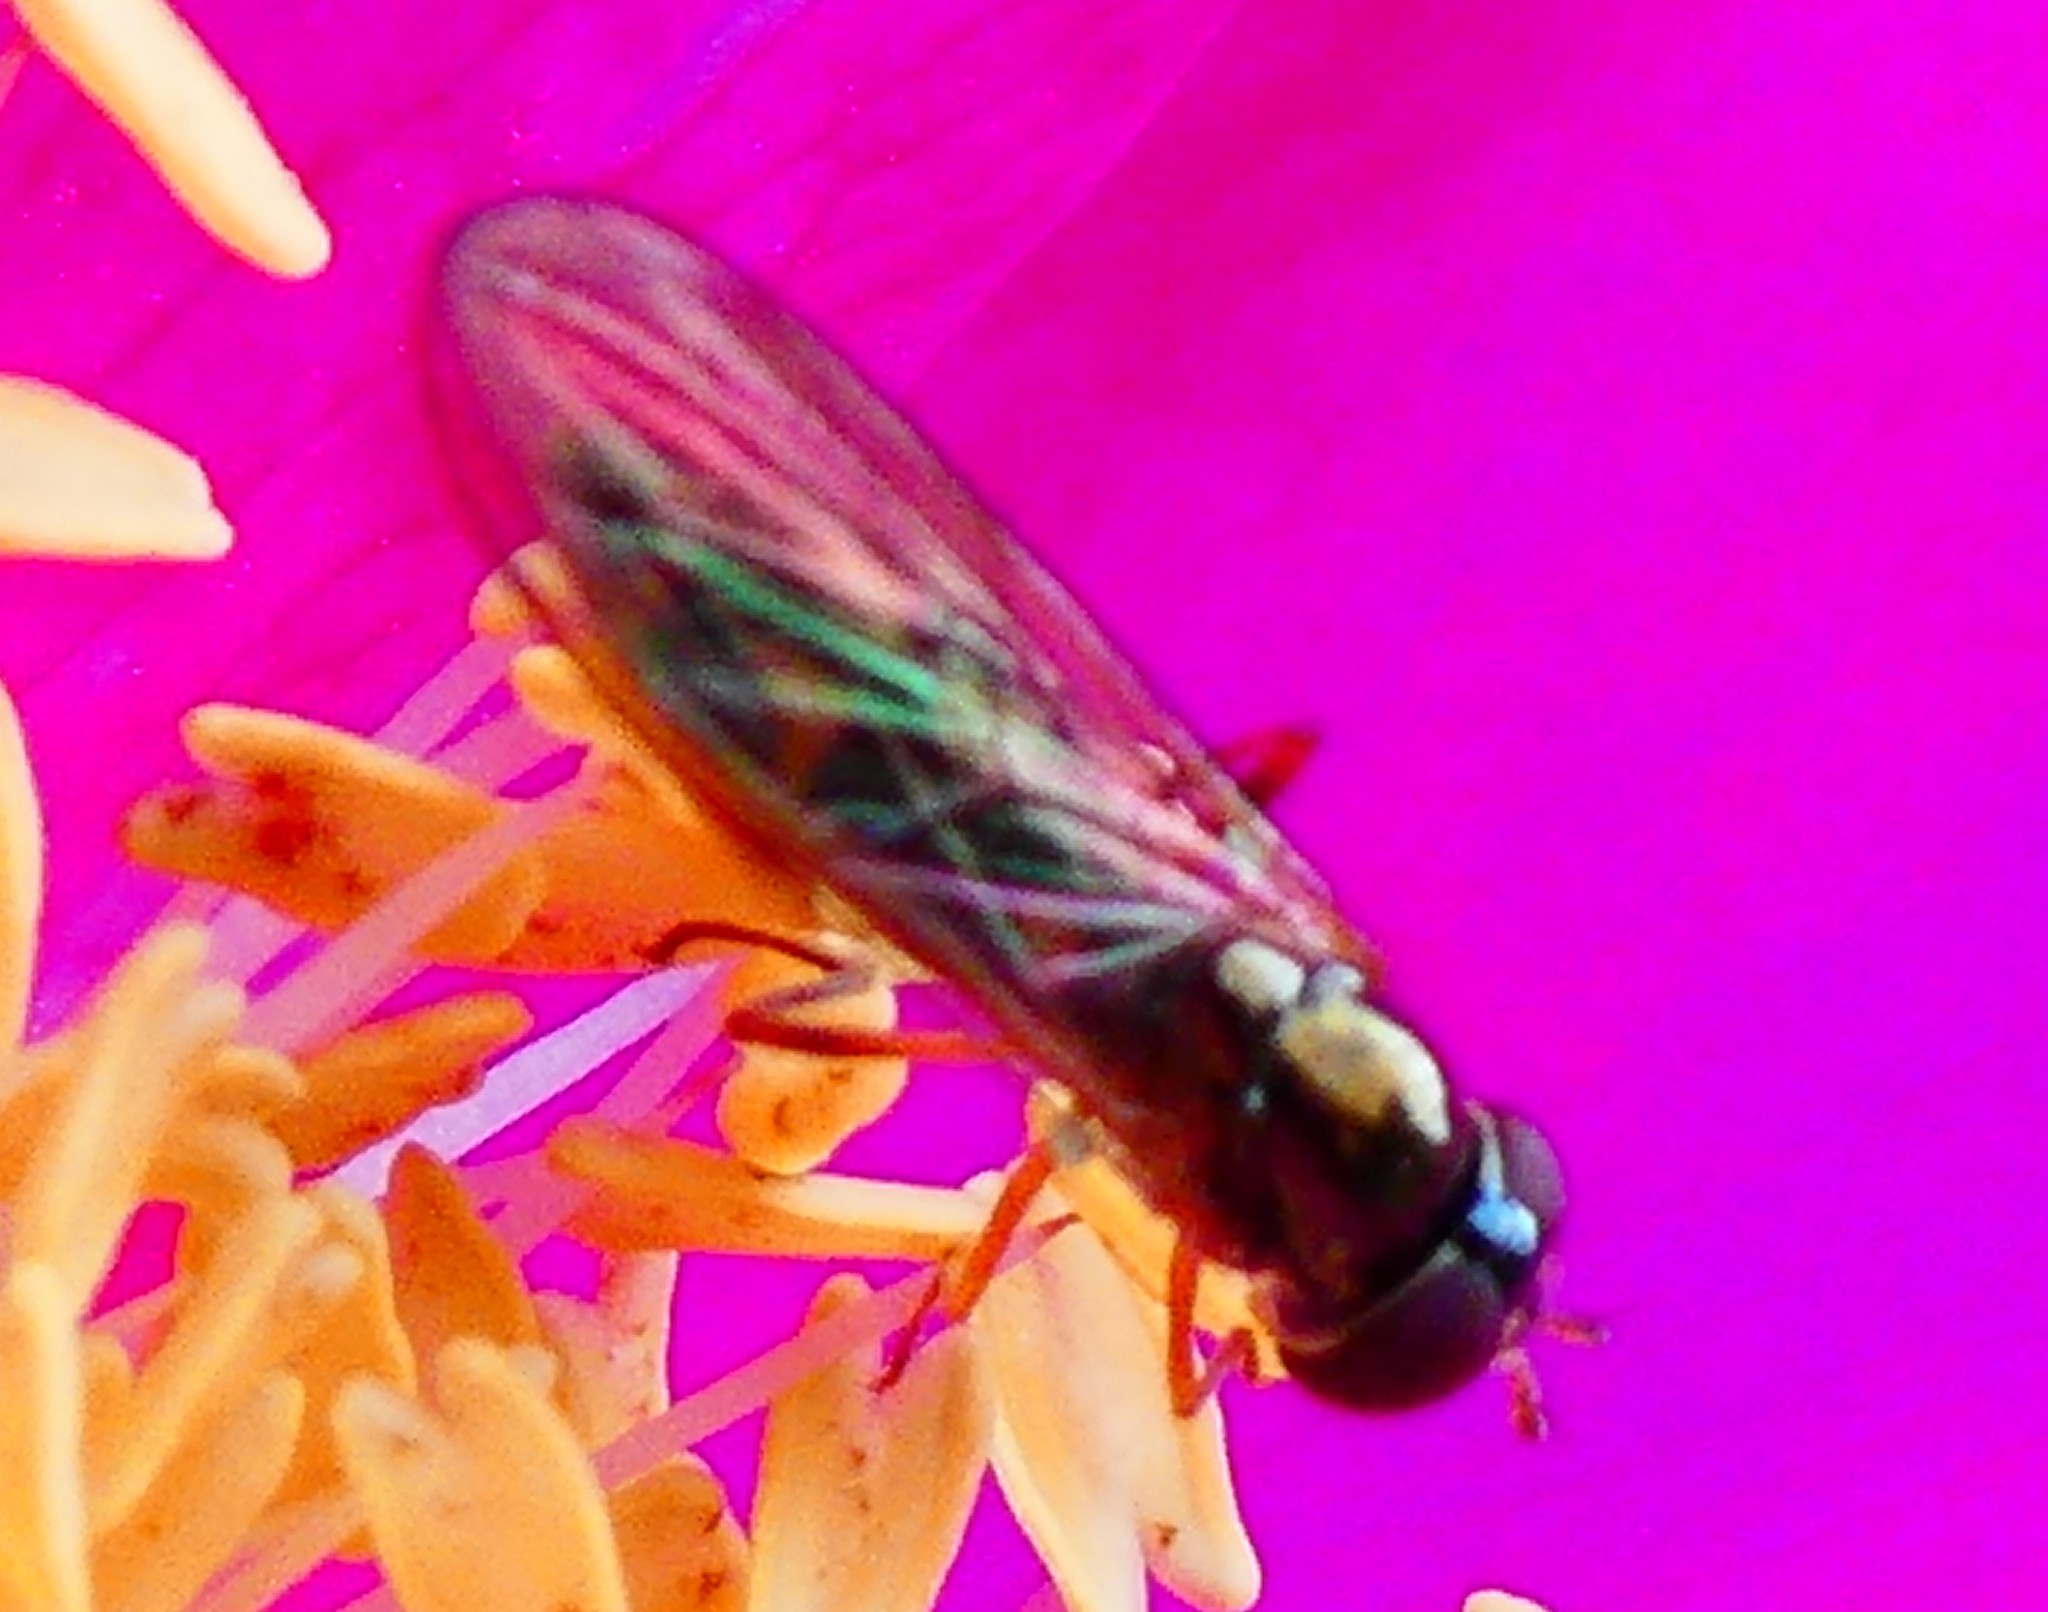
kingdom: Animalia
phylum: Arthropoda
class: Insecta
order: Diptera
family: Syrphidae
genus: Melanostoma
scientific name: Melanostoma
